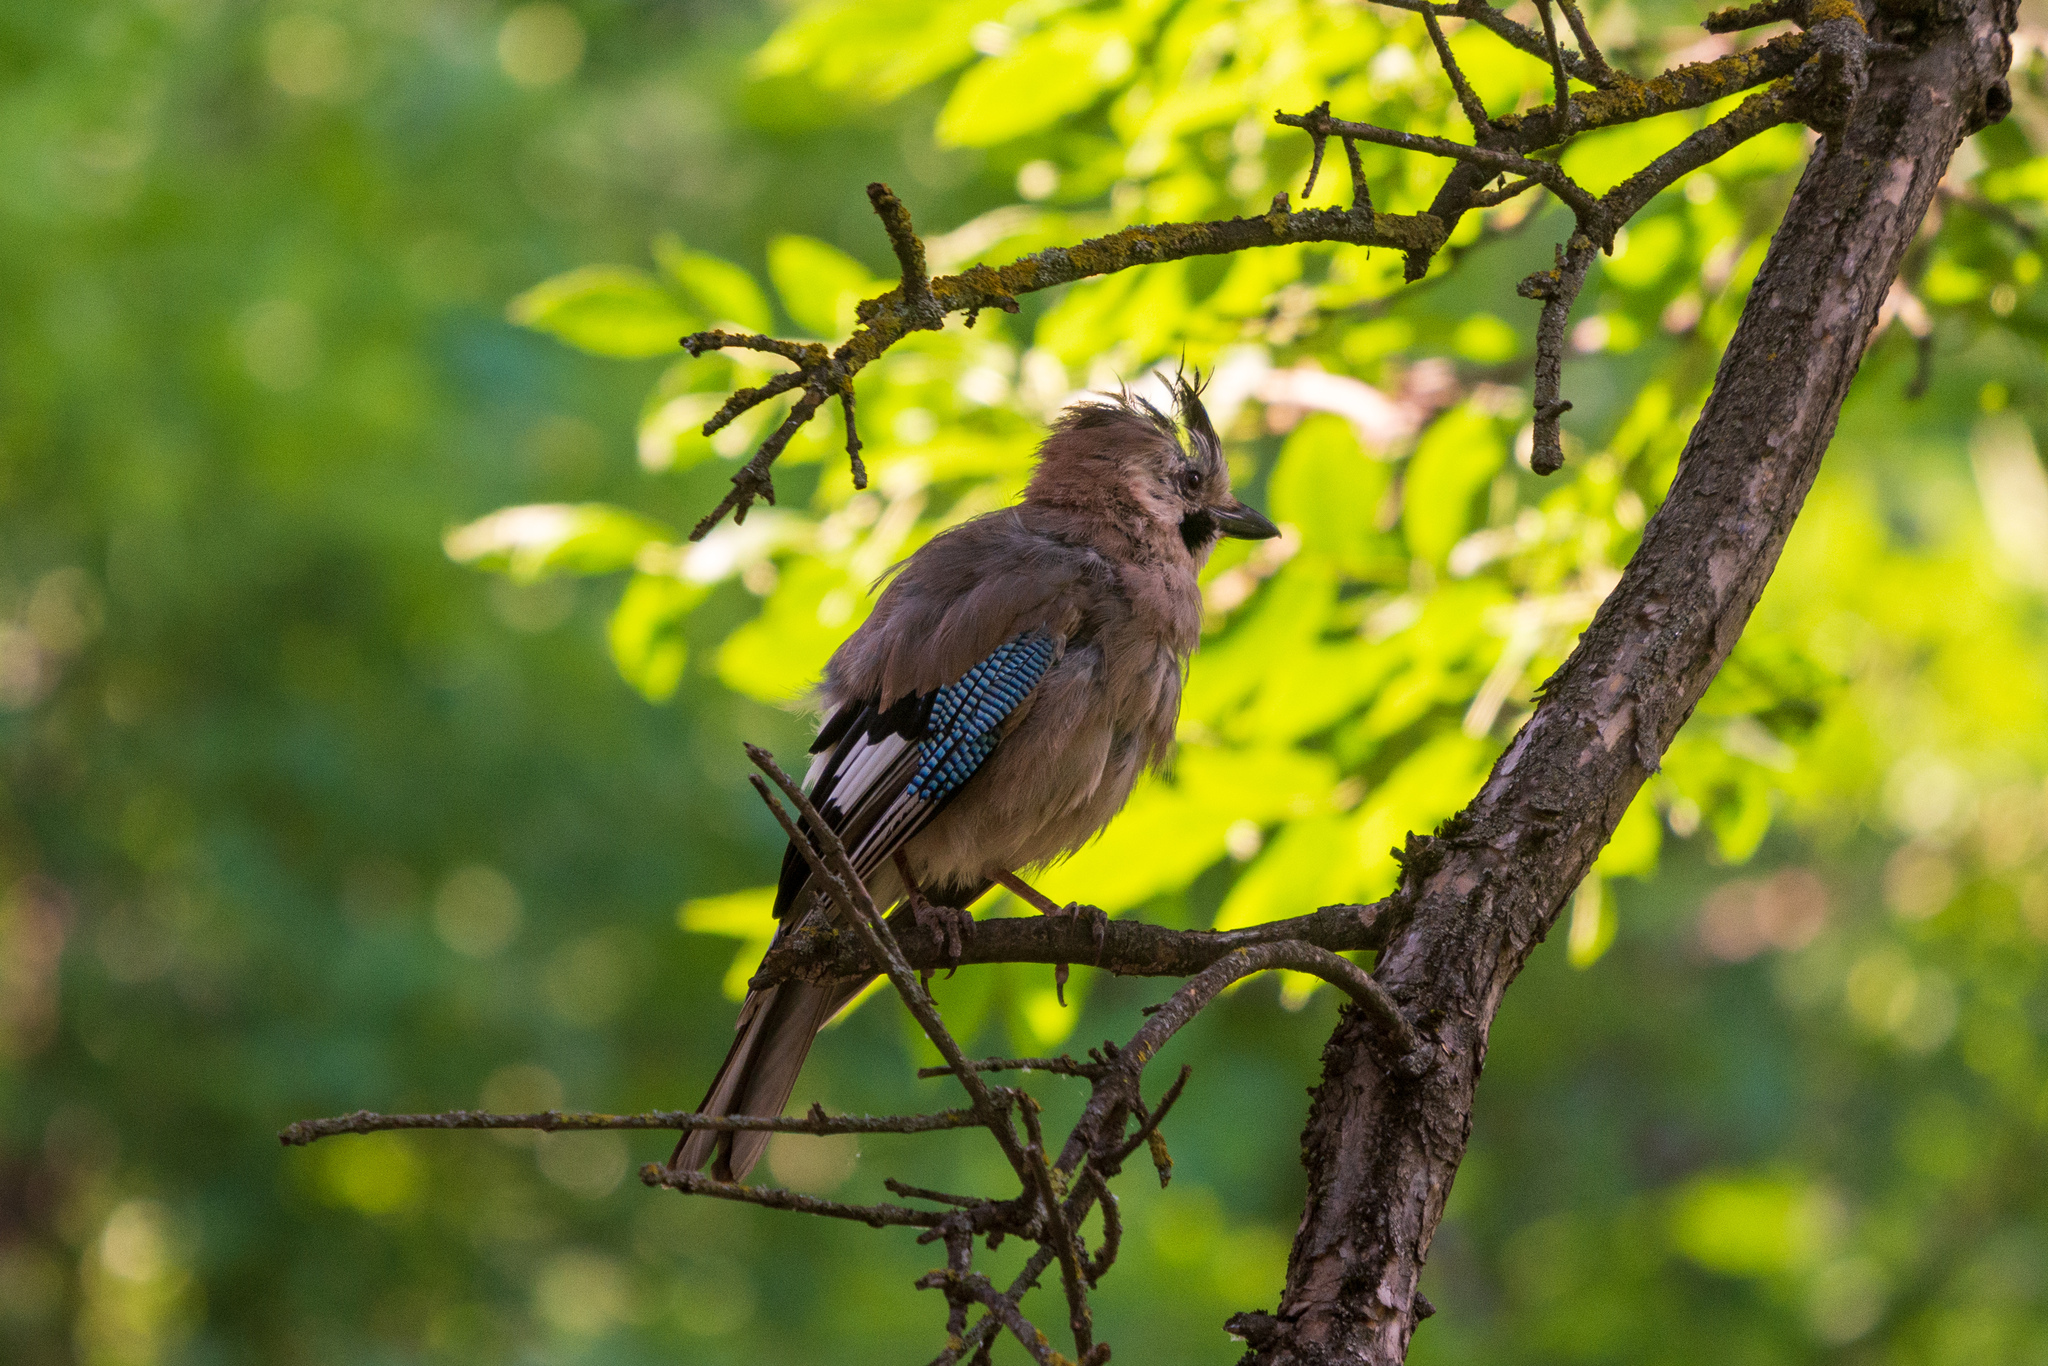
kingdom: Animalia
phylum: Chordata
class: Aves
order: Passeriformes
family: Corvidae
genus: Garrulus
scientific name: Garrulus glandarius
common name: Eurasian jay
